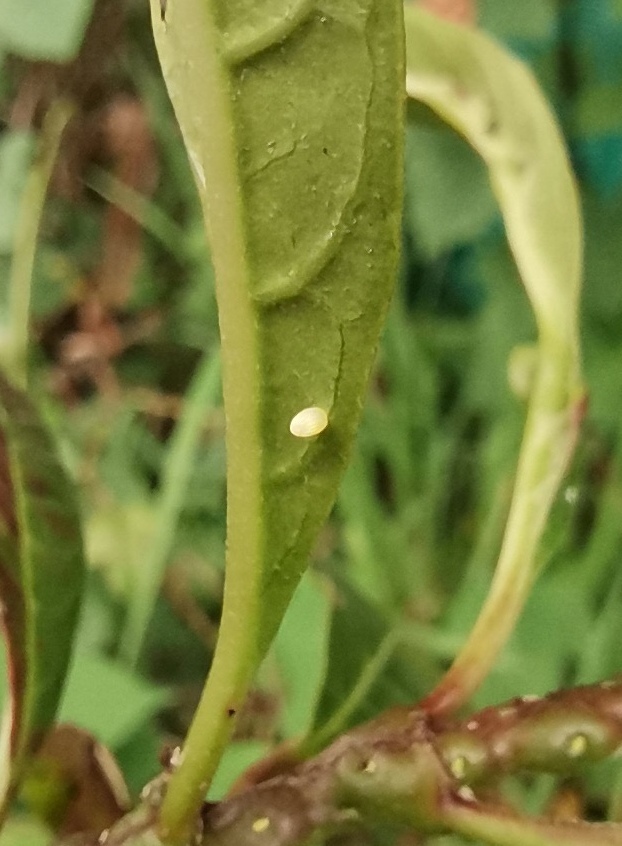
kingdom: Animalia
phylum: Arthropoda
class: Insecta
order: Lepidoptera
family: Nymphalidae
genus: Danaus
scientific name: Danaus plexippus
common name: Monarch
